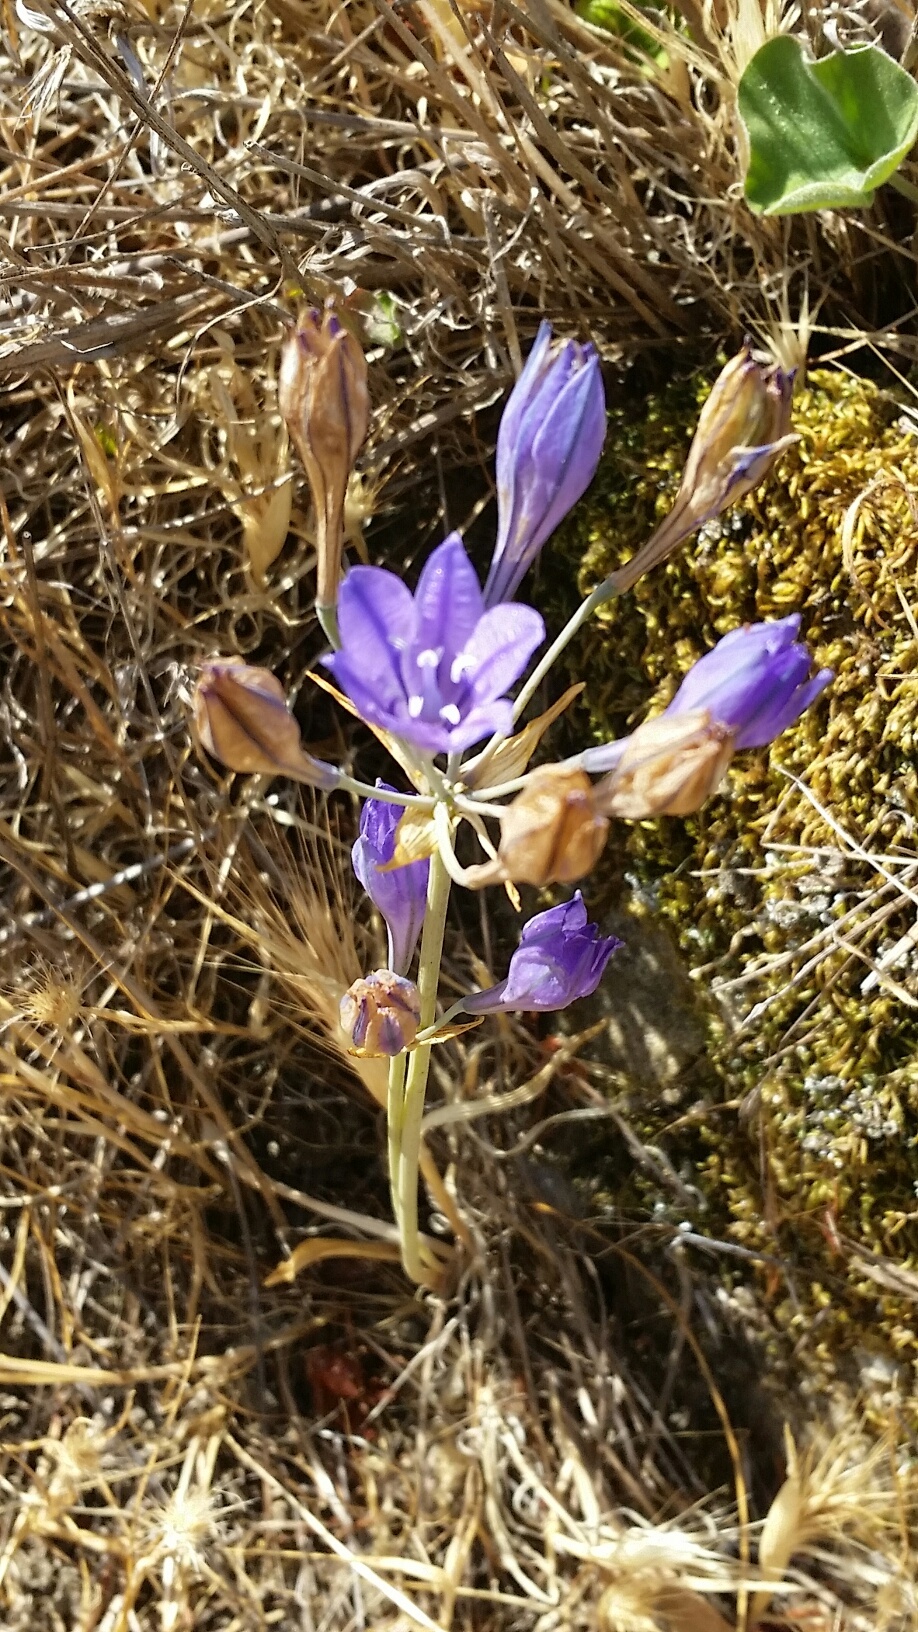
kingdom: Plantae
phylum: Tracheophyta
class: Liliopsida
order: Asparagales
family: Asparagaceae
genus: Triteleia
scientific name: Triteleia laxa
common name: Triplet-lily
